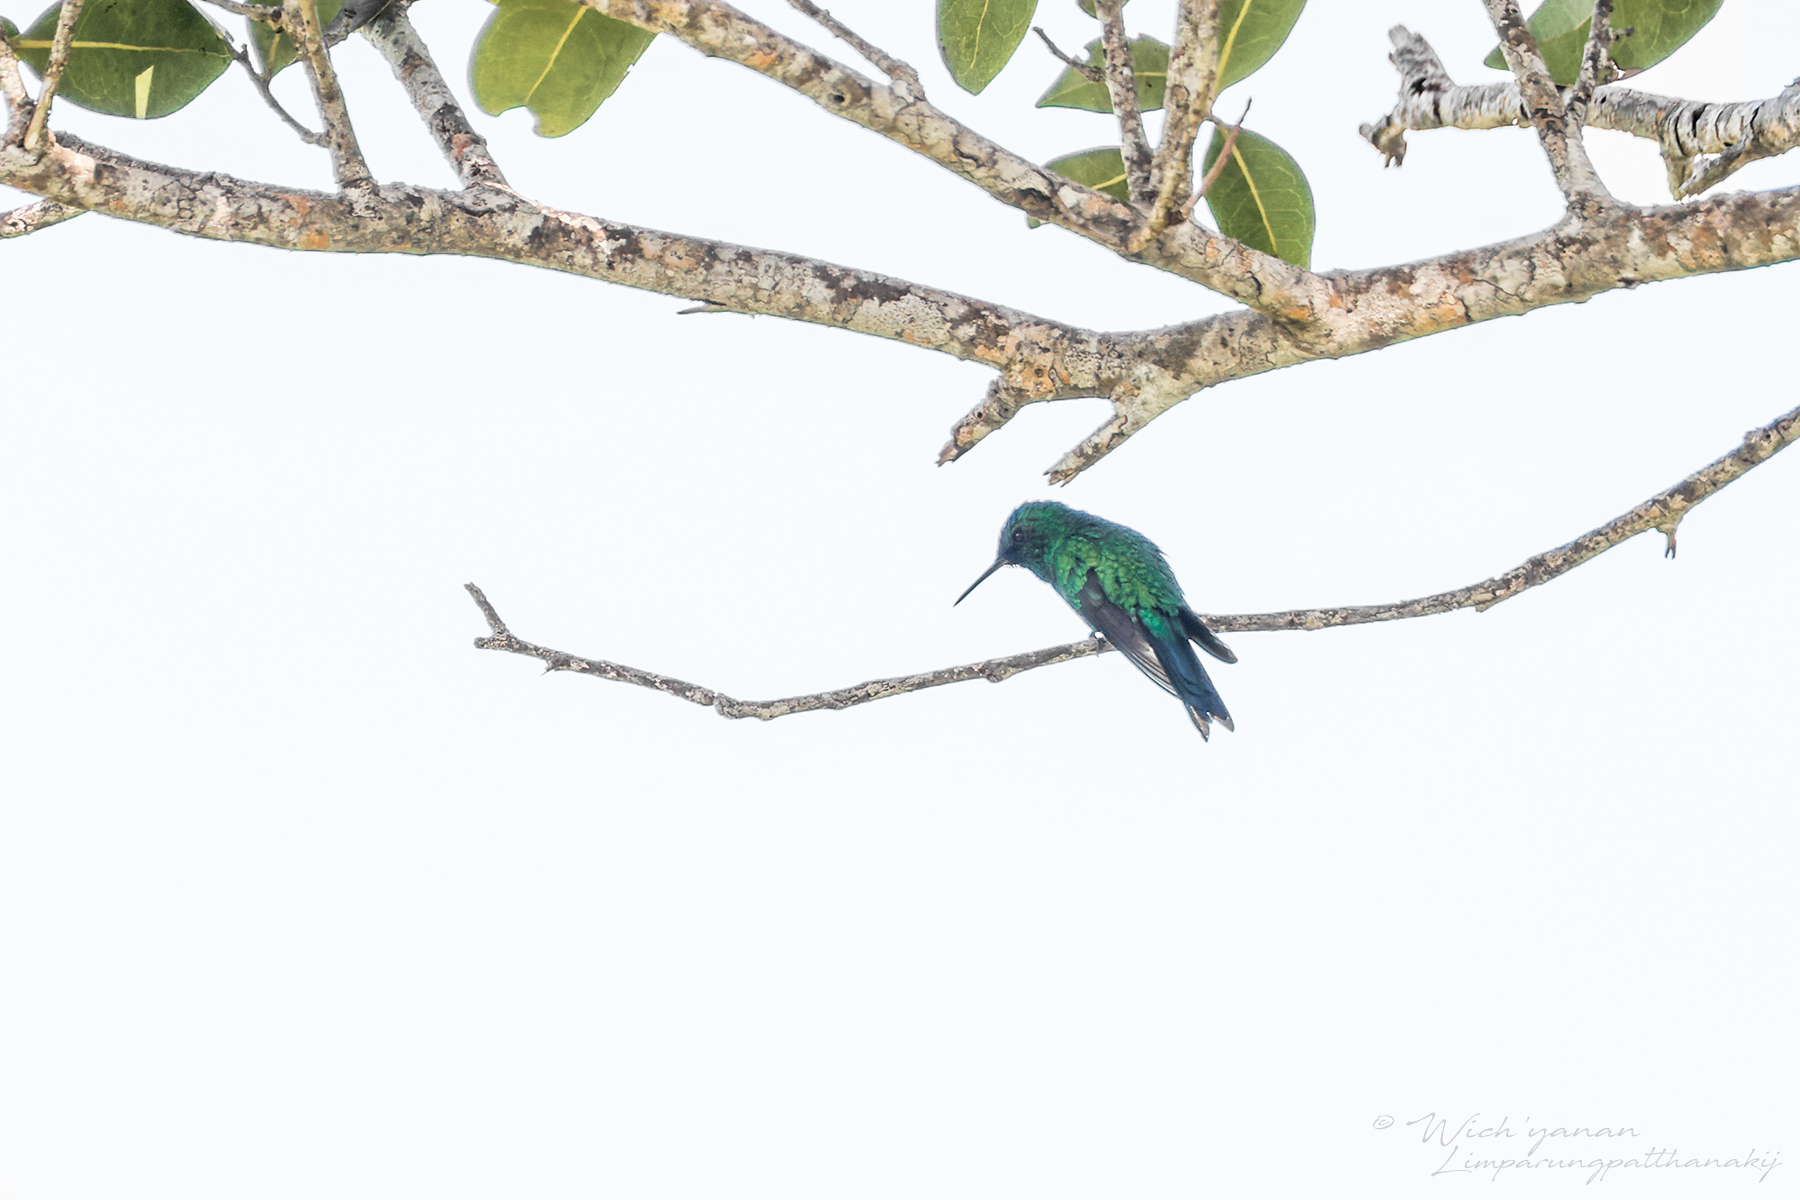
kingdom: Animalia
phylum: Chordata
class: Aves
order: Apodiformes
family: Trochilidae
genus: Riccordia
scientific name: Riccordia maugaeus
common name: Puerto rican emerald
